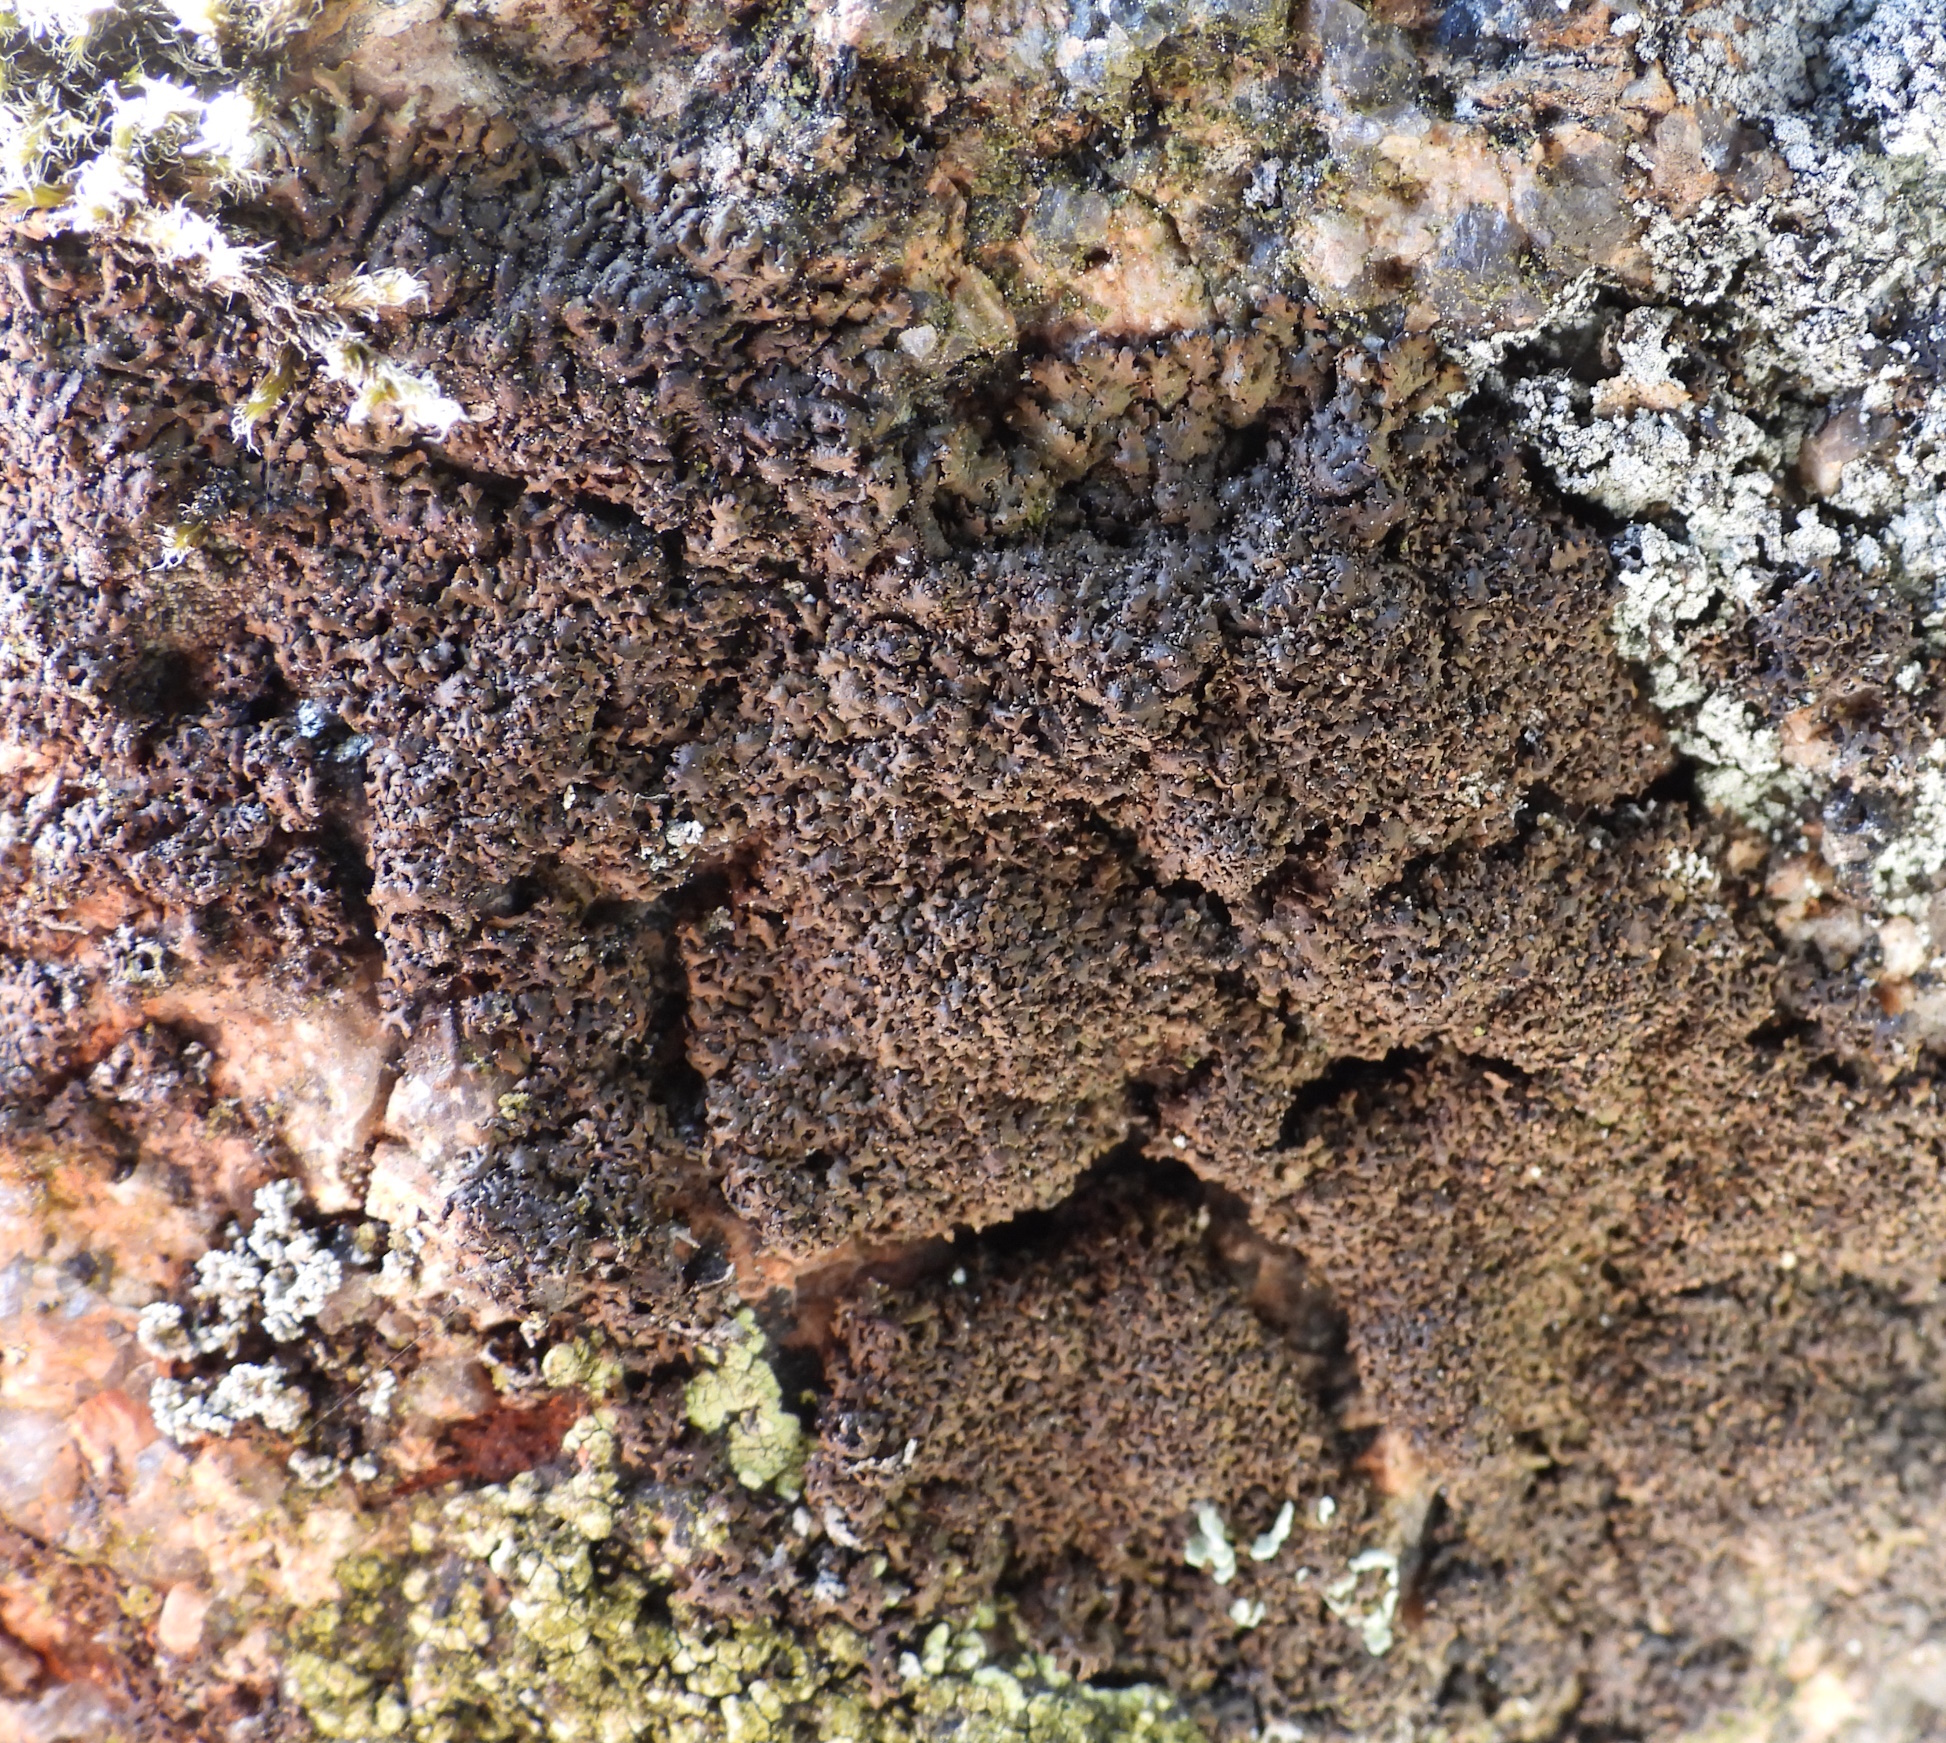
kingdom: Fungi
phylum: Ascomycota
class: Lecanoromycetes
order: Lecanorales
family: Parmeliaceae
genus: Montanelia
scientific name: Montanelia panniformis
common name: Shingled camouflage lichen
